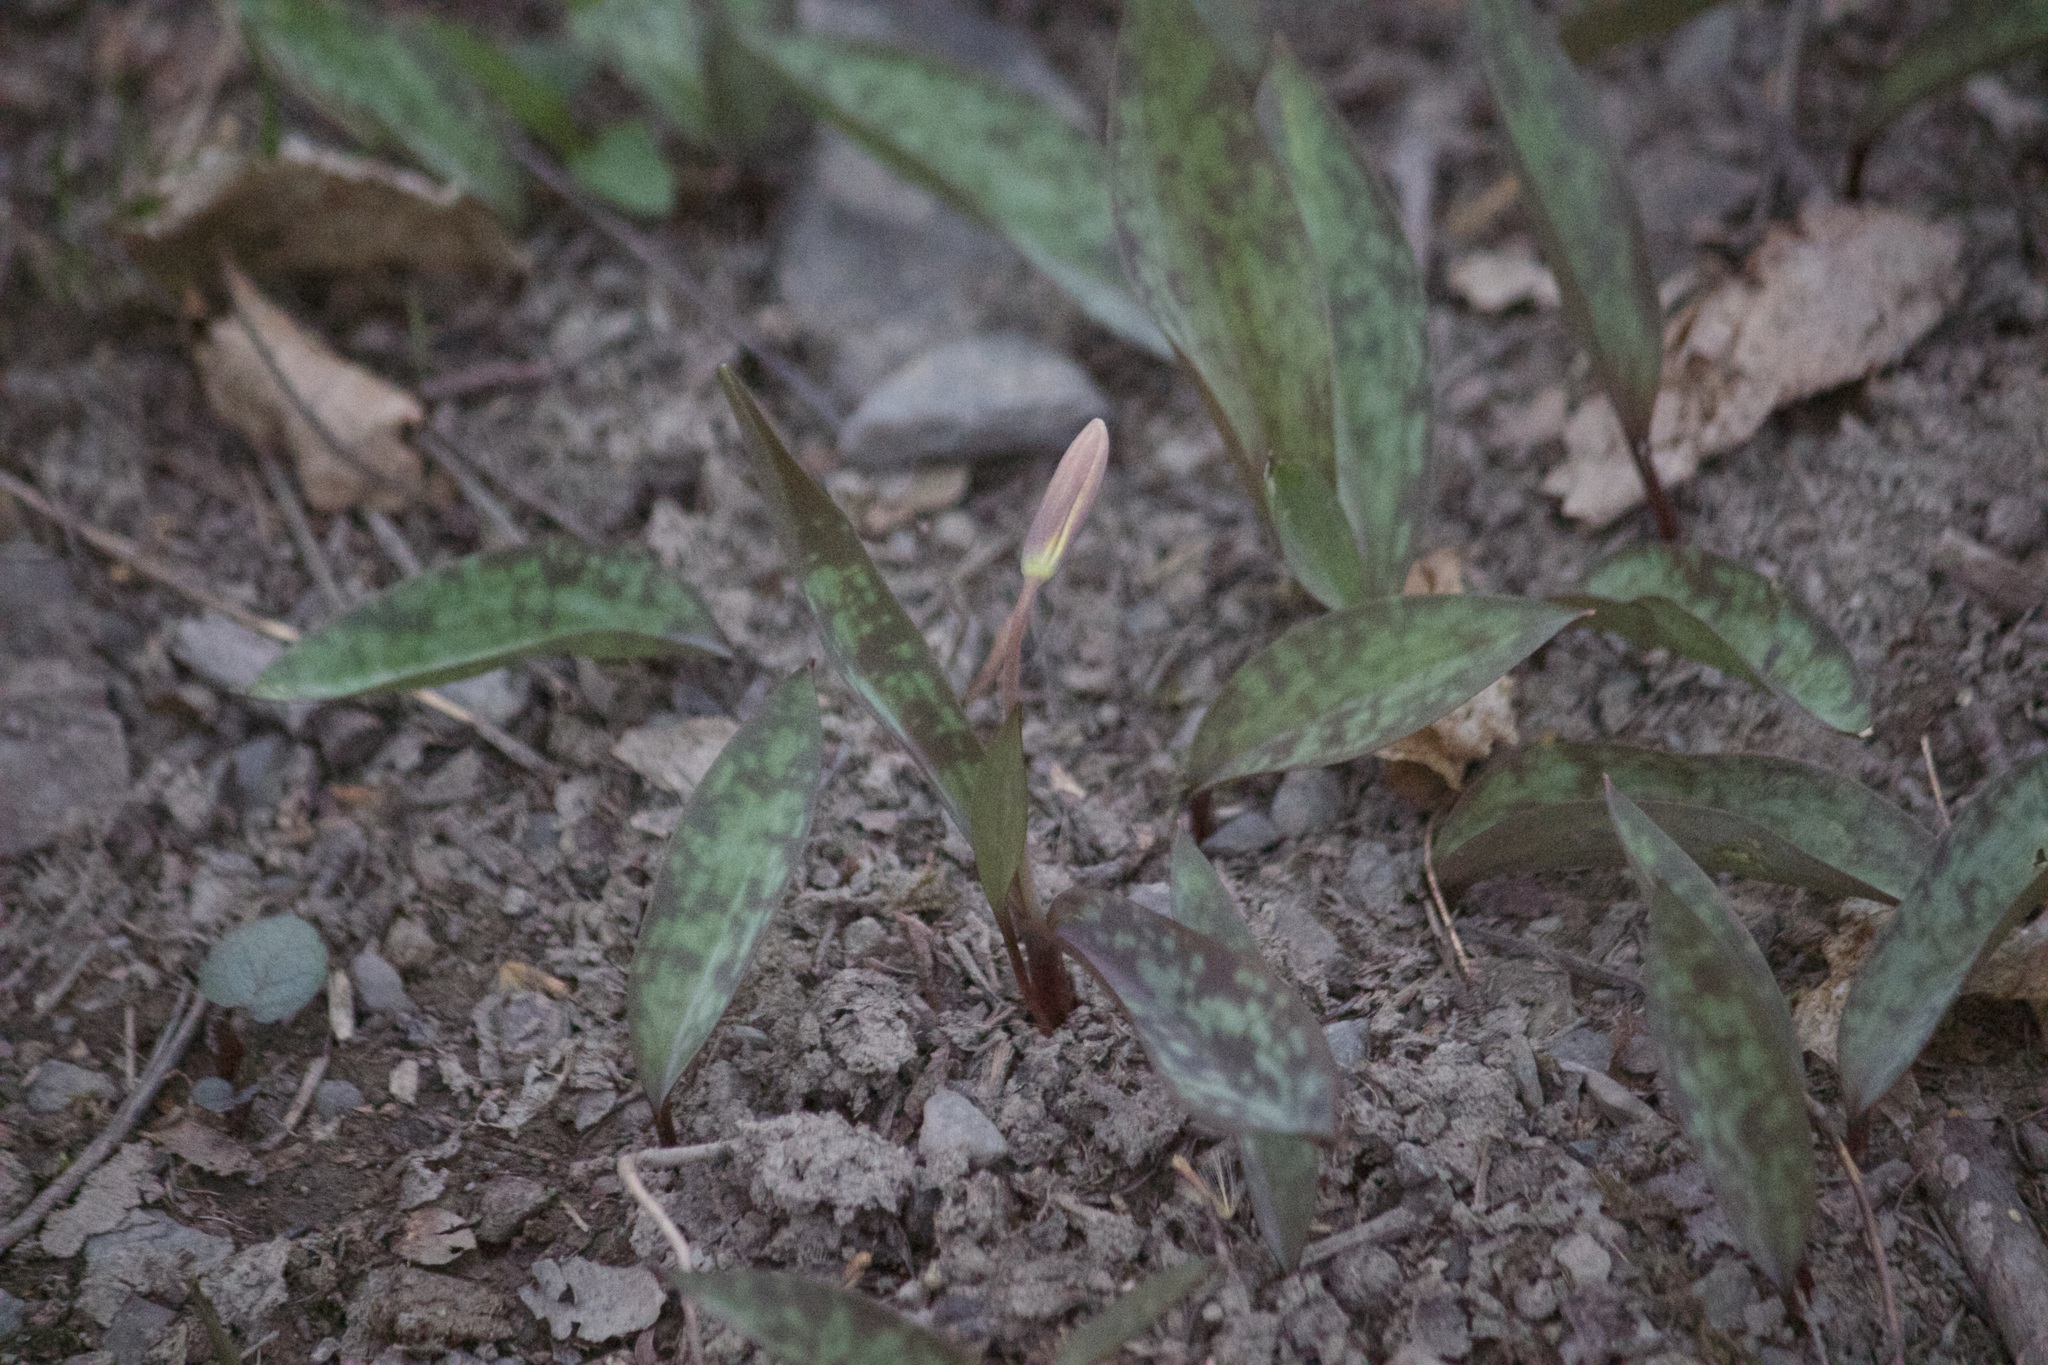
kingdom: Plantae
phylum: Tracheophyta
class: Liliopsida
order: Liliales
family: Liliaceae
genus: Erythronium
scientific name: Erythronium americanum
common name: Yellow adder's-tongue
